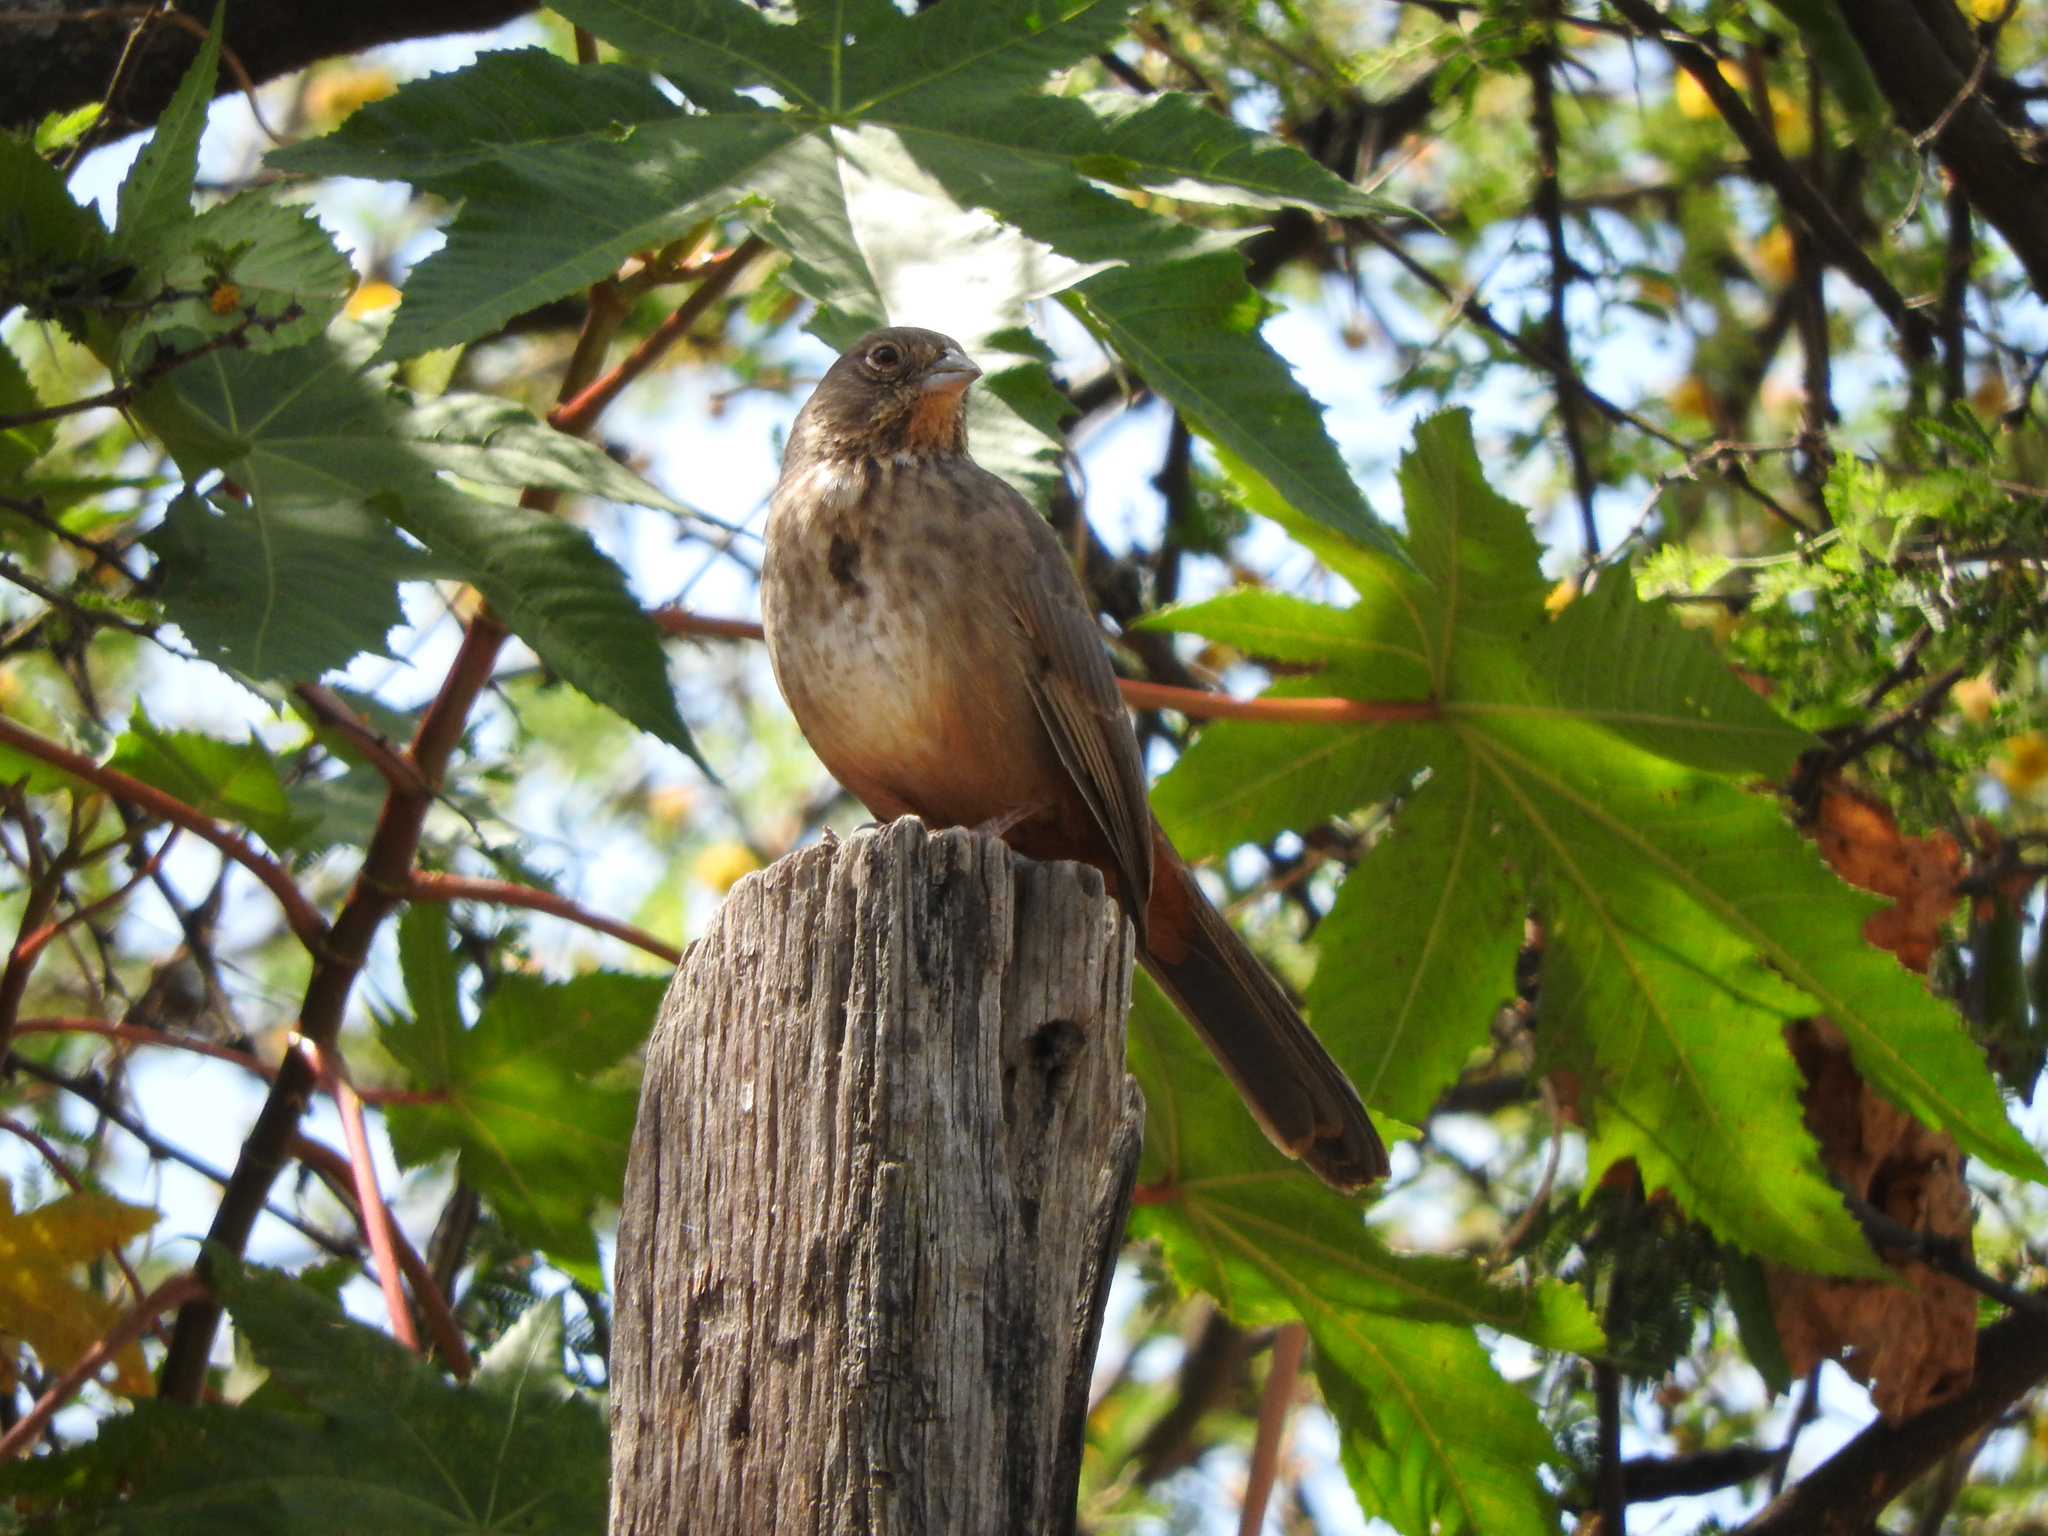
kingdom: Animalia
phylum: Chordata
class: Aves
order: Passeriformes
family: Passerellidae
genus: Melozone
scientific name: Melozone fusca
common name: Canyon towhee
